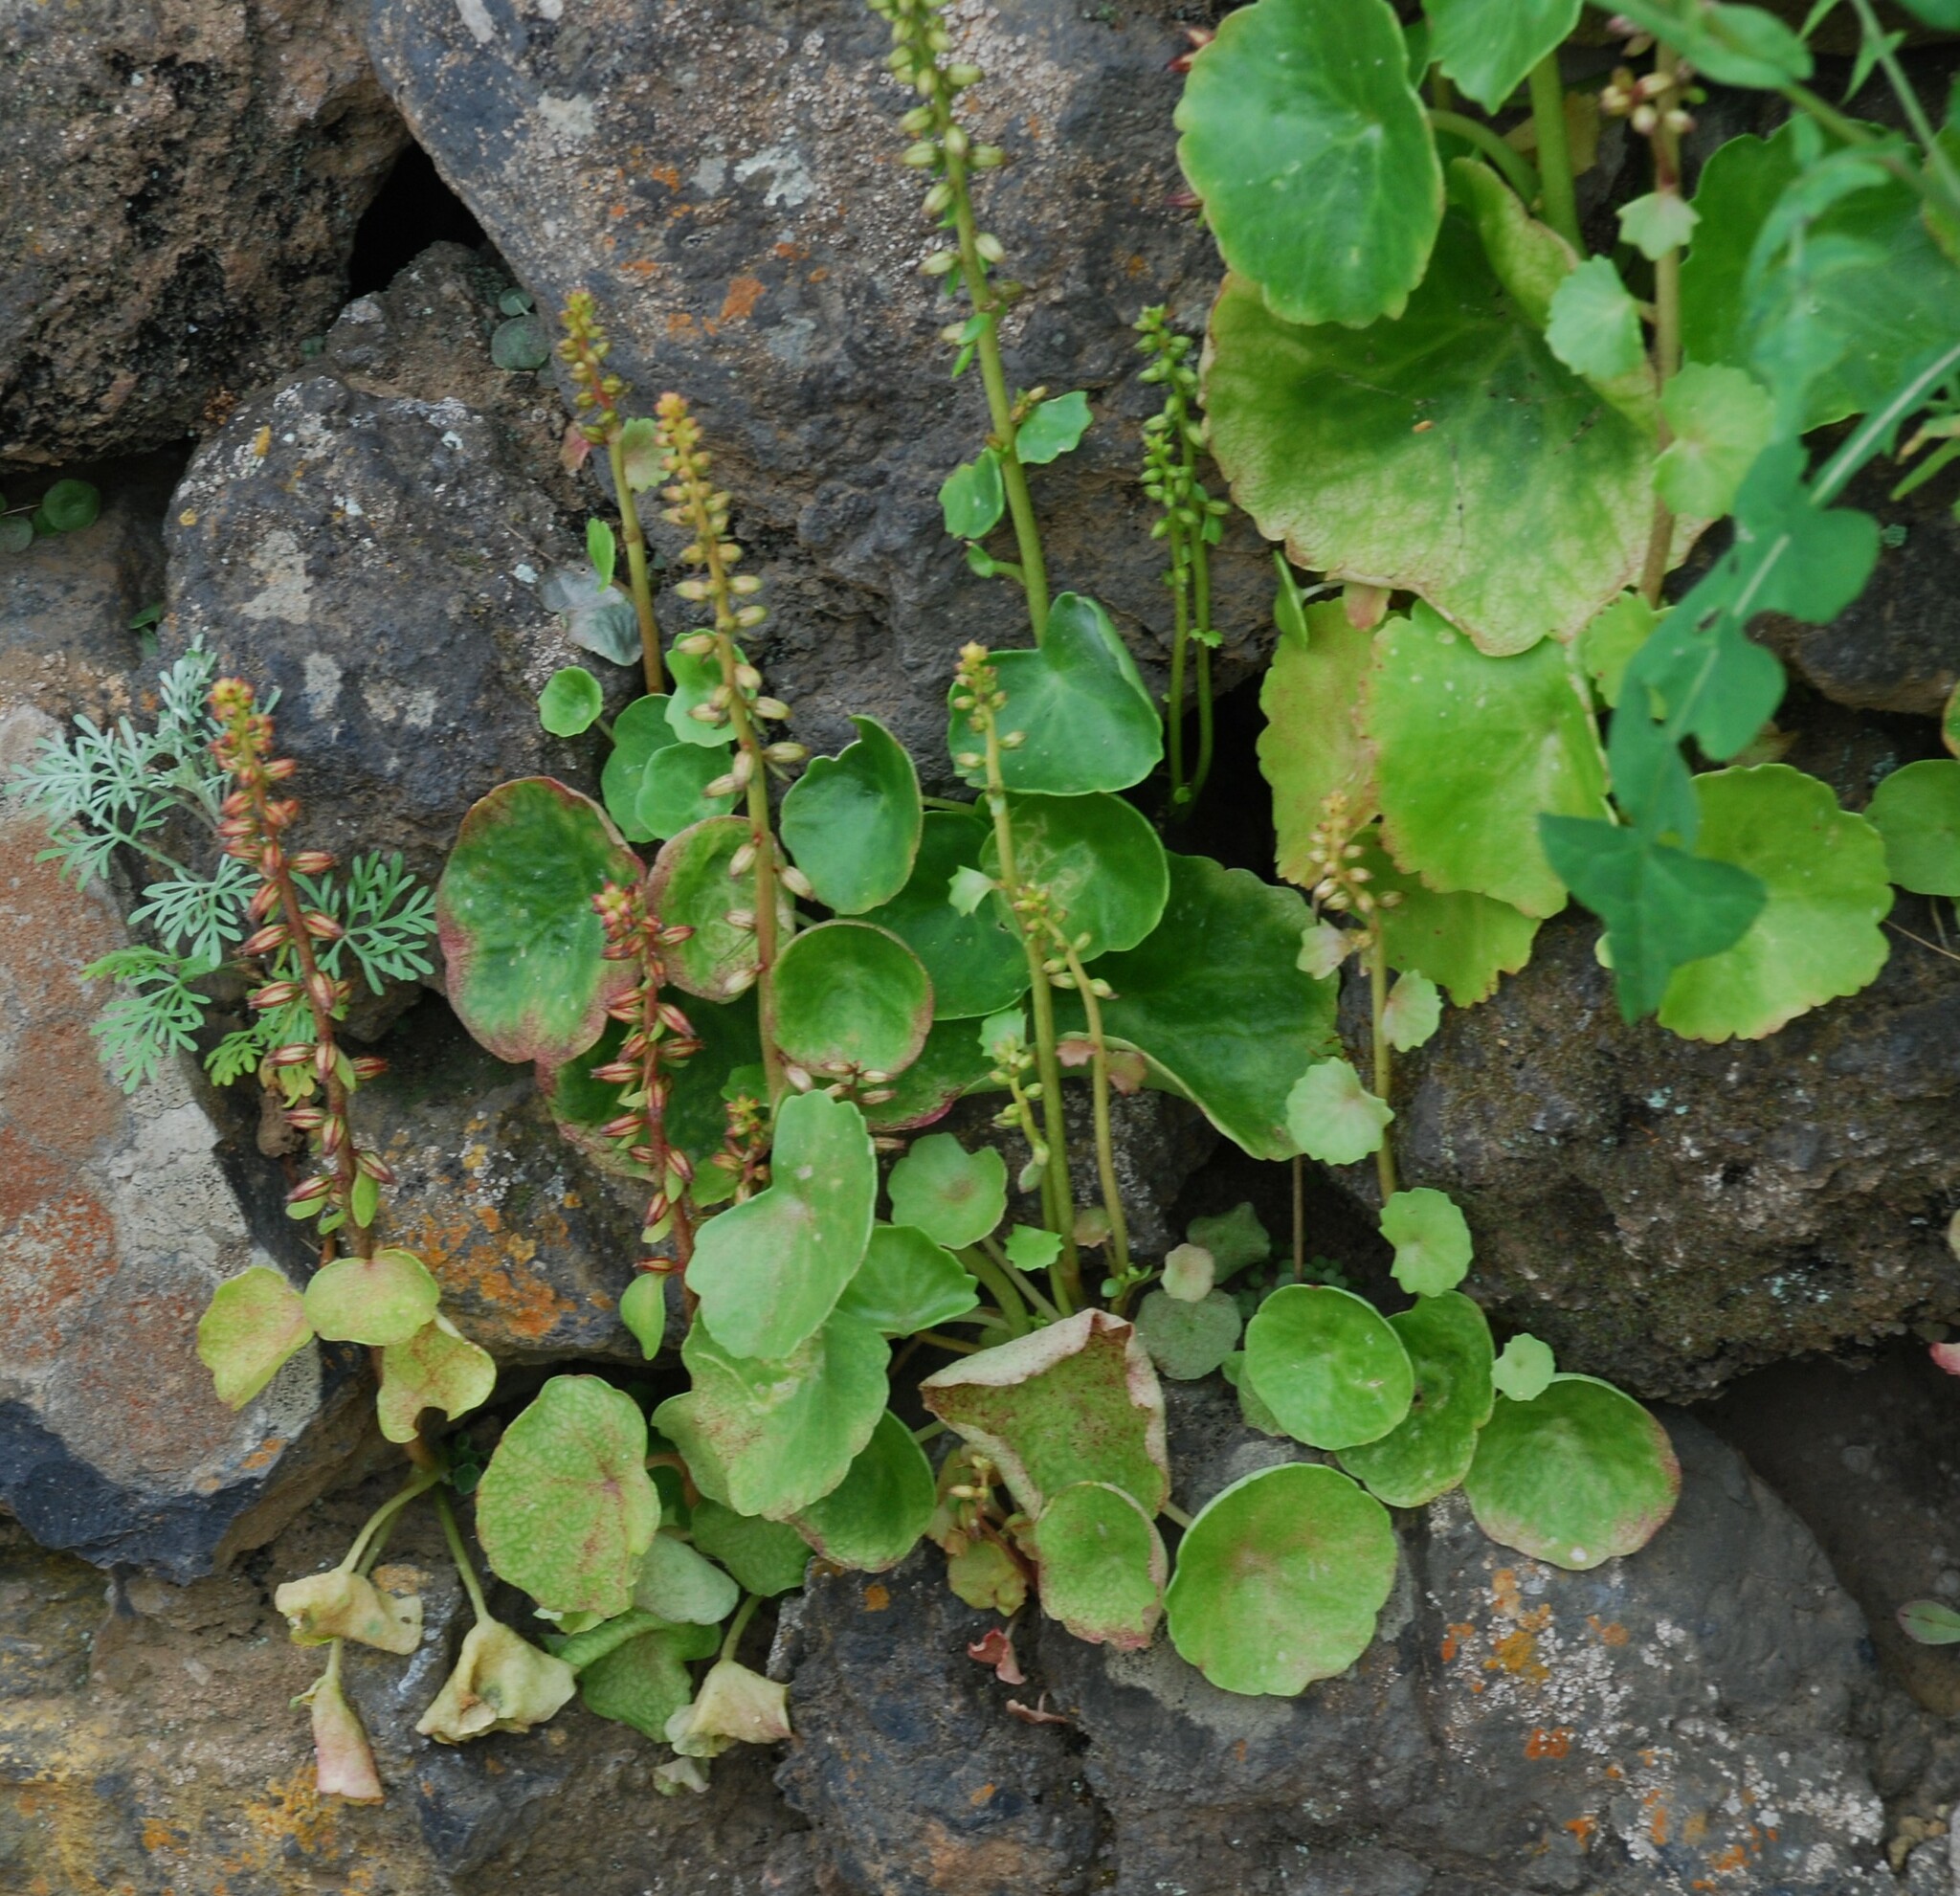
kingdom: Plantae
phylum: Tracheophyta
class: Magnoliopsida
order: Saxifragales
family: Crassulaceae
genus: Umbilicus
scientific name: Umbilicus horizontalis
